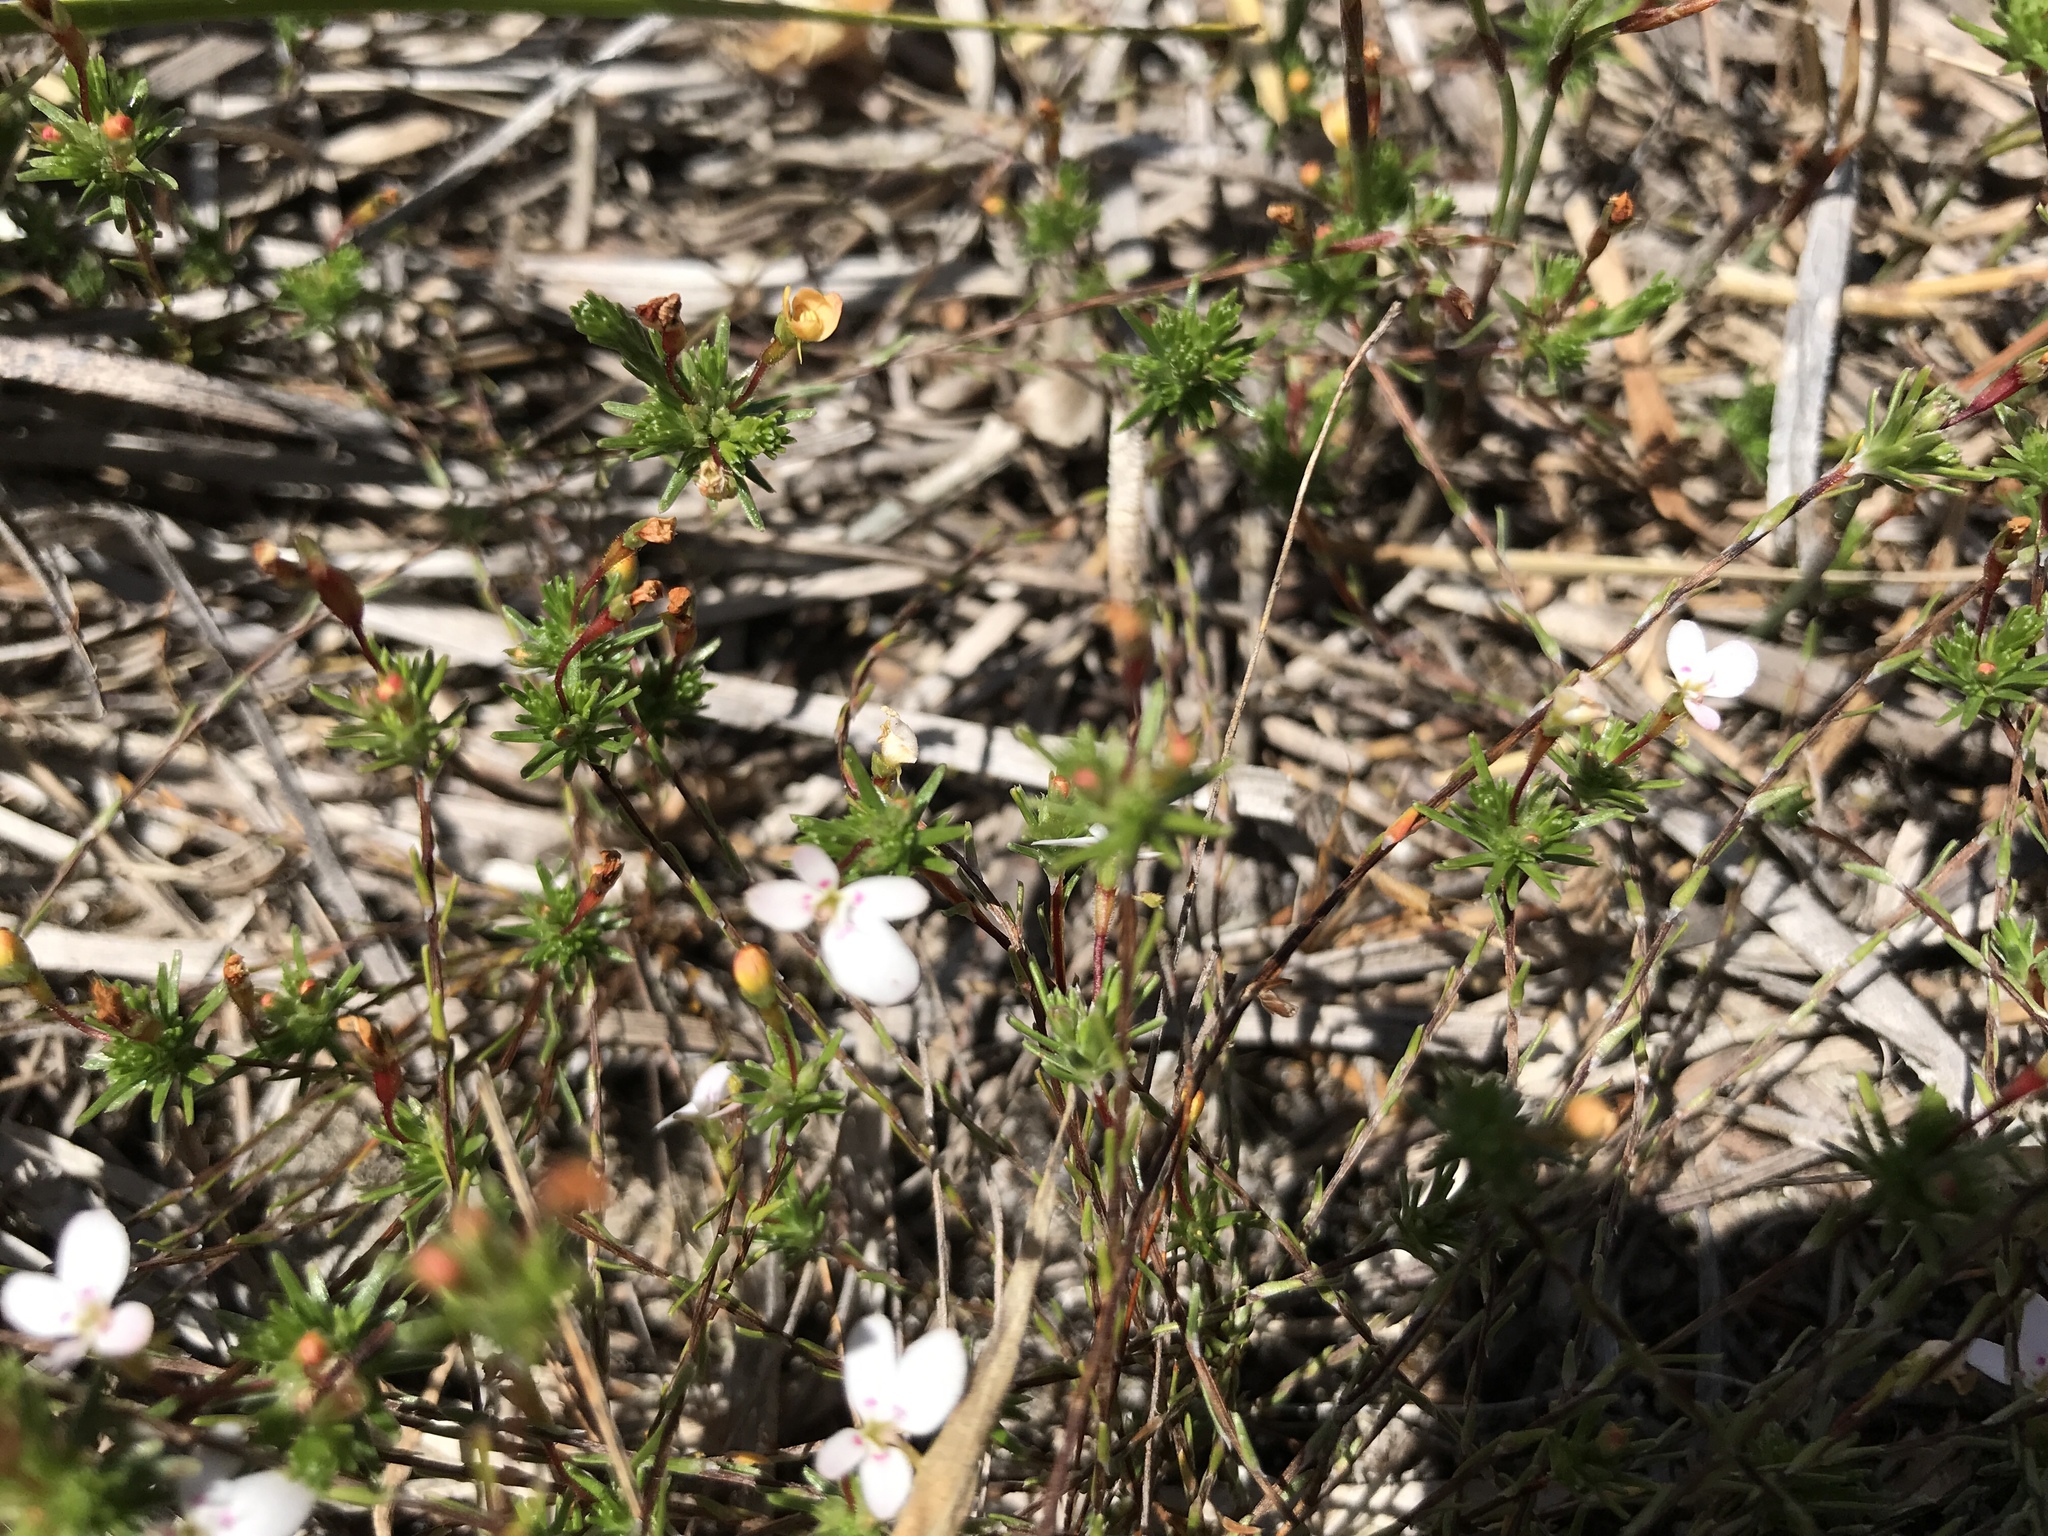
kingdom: Plantae
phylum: Tracheophyta
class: Magnoliopsida
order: Asterales
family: Stylidiaceae
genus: Stylidium
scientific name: Stylidium repens
